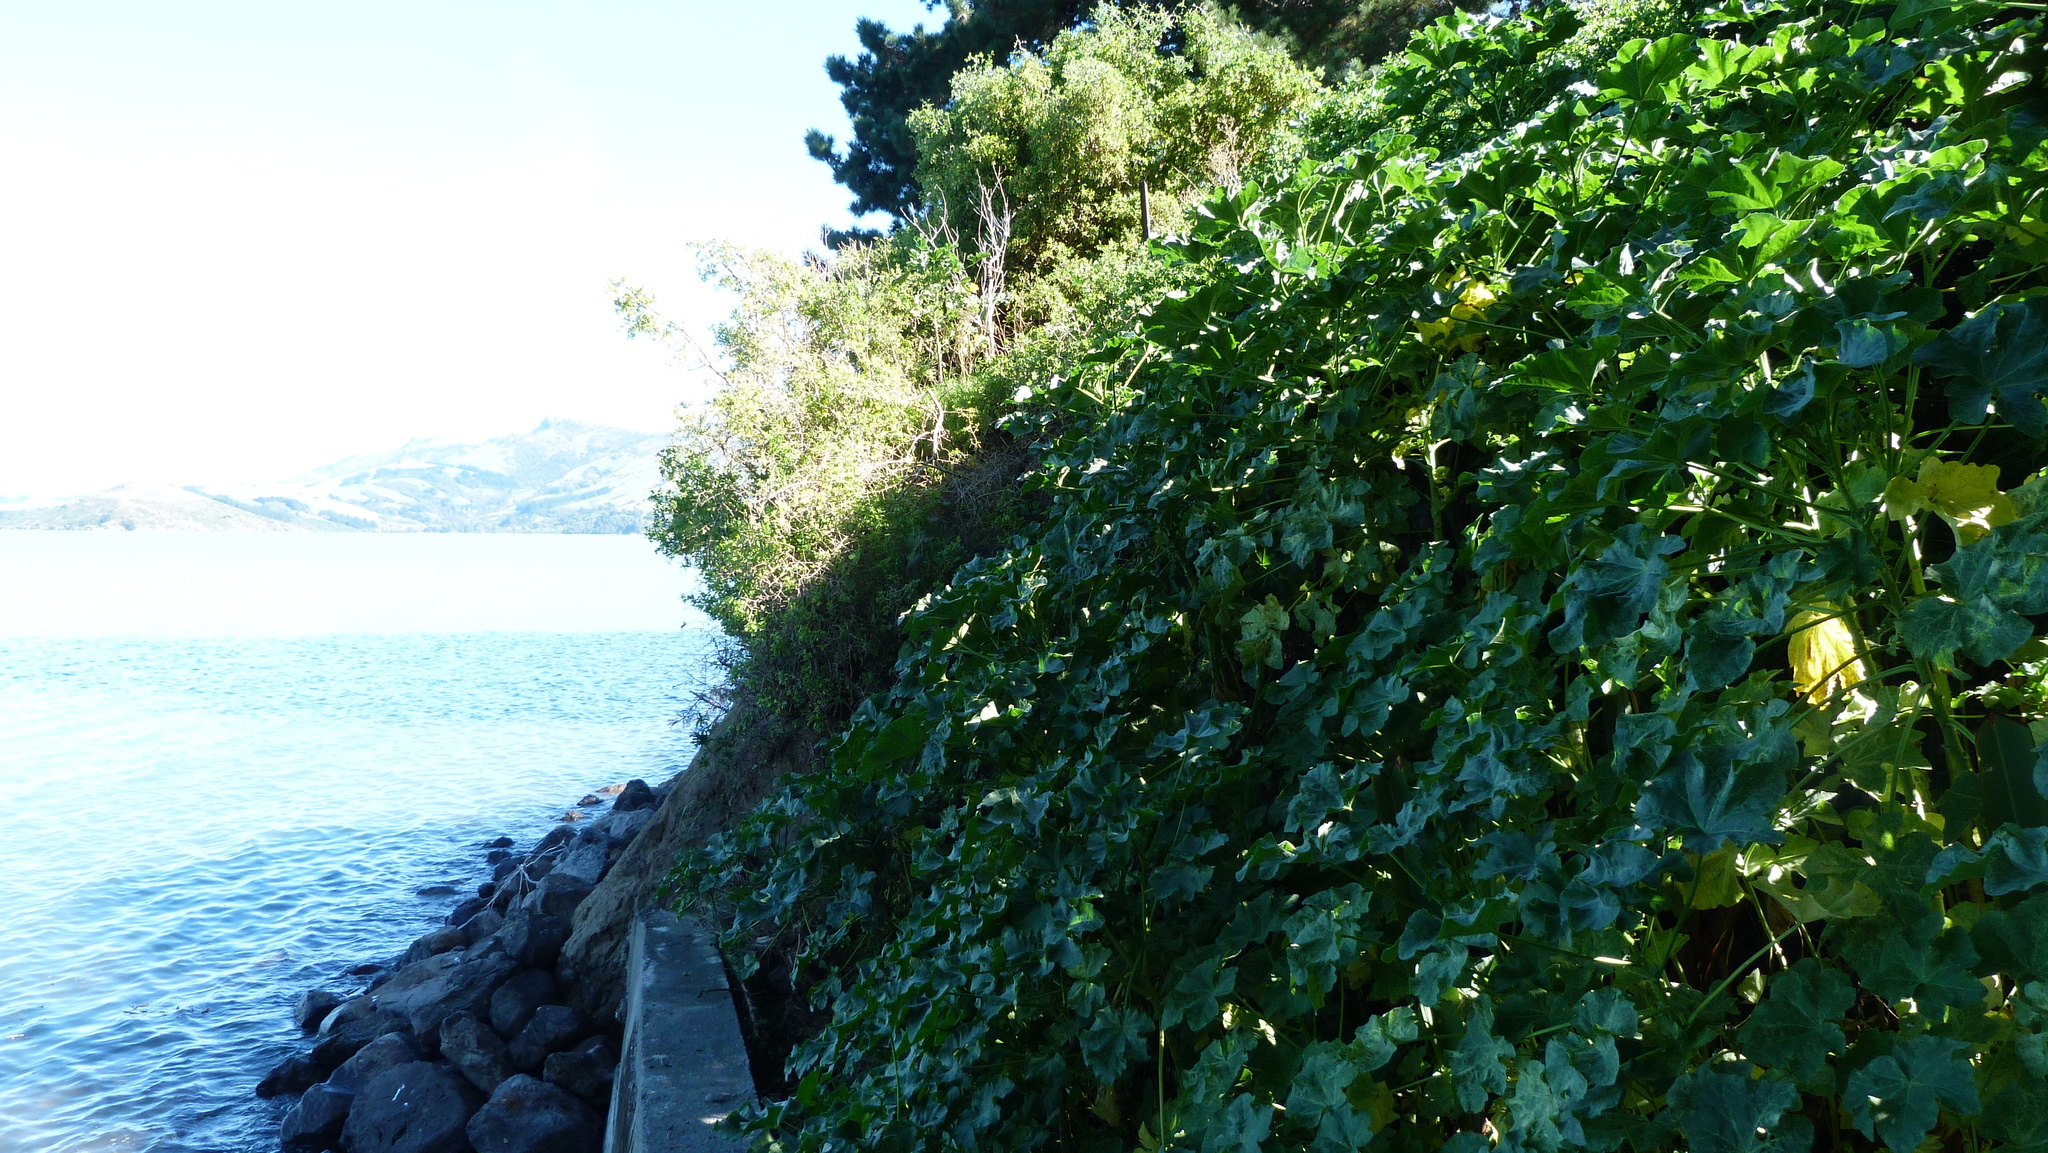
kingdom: Plantae
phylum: Tracheophyta
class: Magnoliopsida
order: Solanales
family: Solanaceae
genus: Lycium
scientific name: Lycium ferocissimum
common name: African boxthorn
